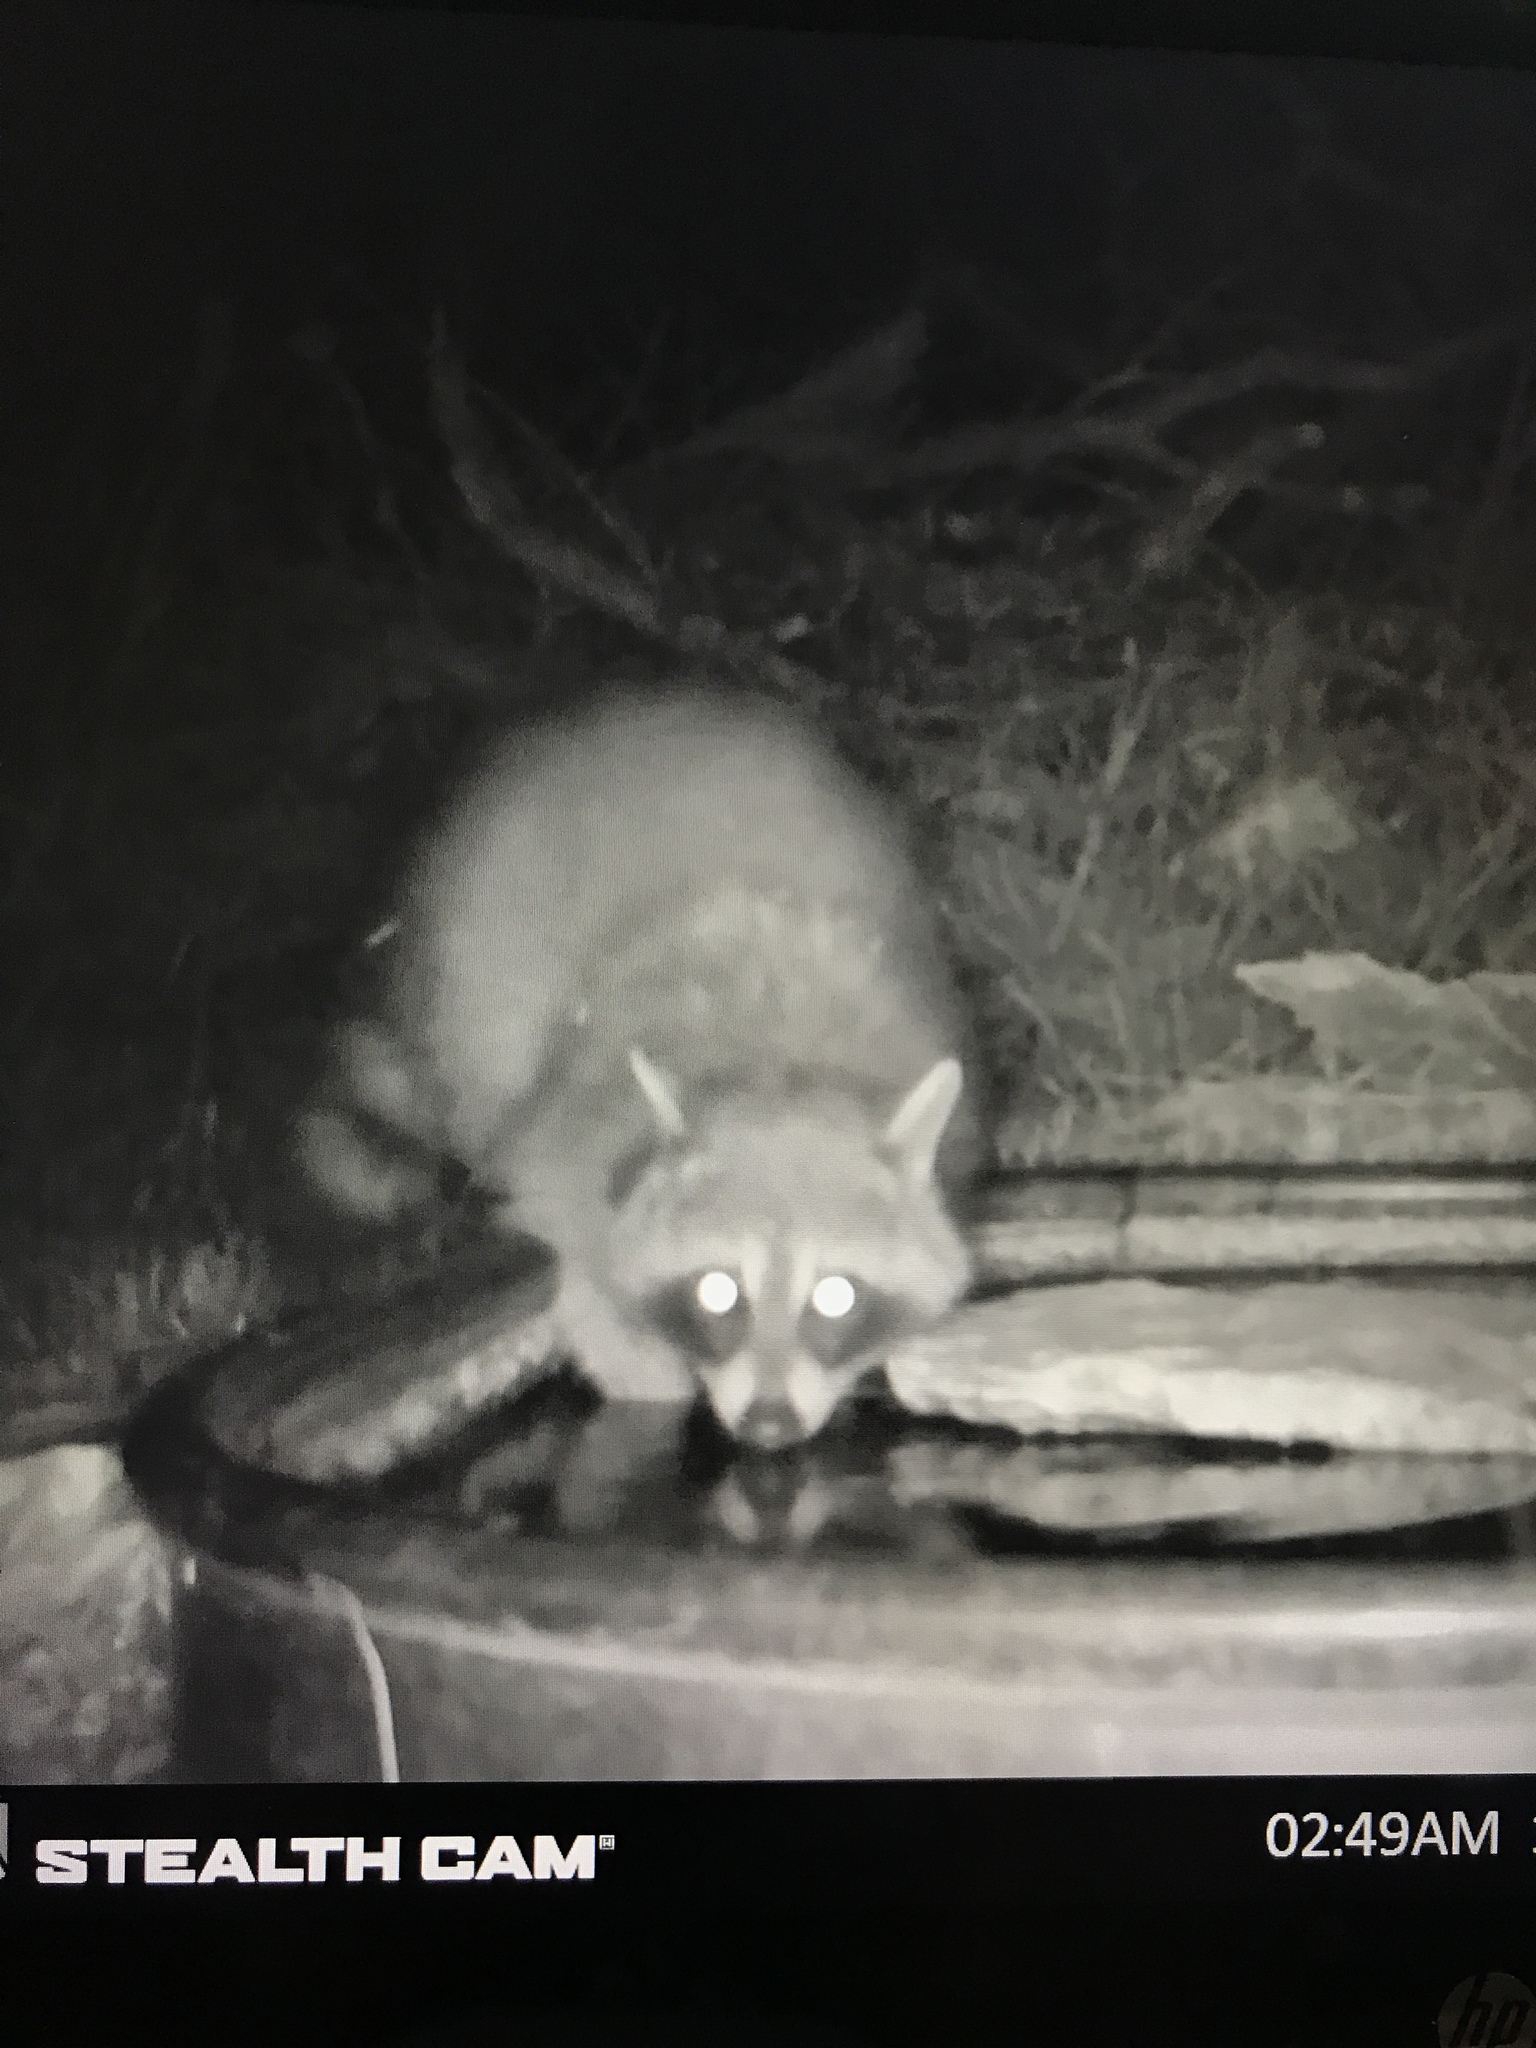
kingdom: Animalia
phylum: Chordata
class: Mammalia
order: Carnivora
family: Procyonidae
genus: Procyon
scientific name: Procyon lotor
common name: Raccoon
